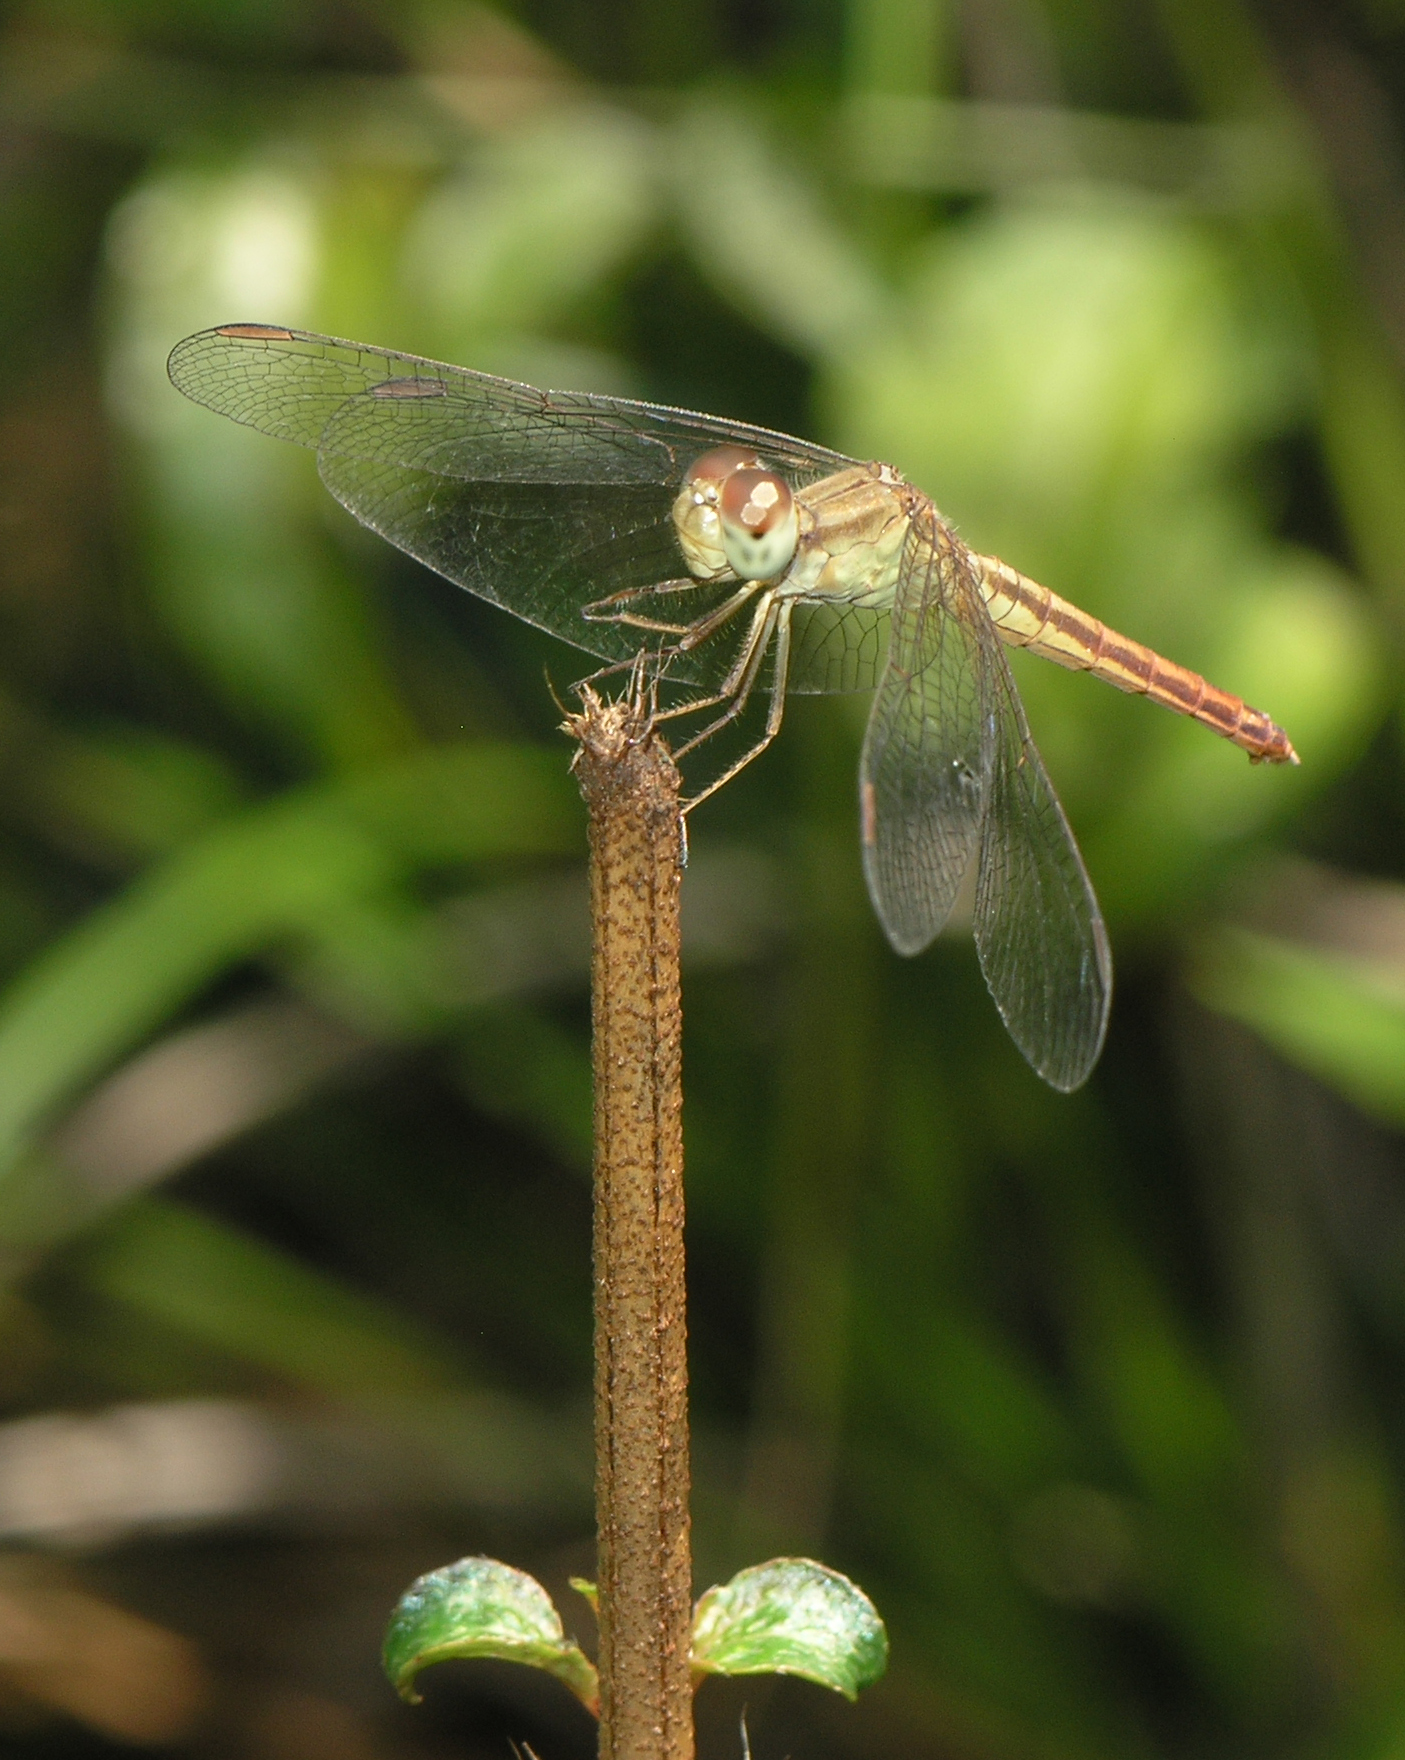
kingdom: Animalia
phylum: Arthropoda
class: Insecta
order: Odonata
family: Libellulidae
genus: Neurothemis
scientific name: Neurothemis intermedia
